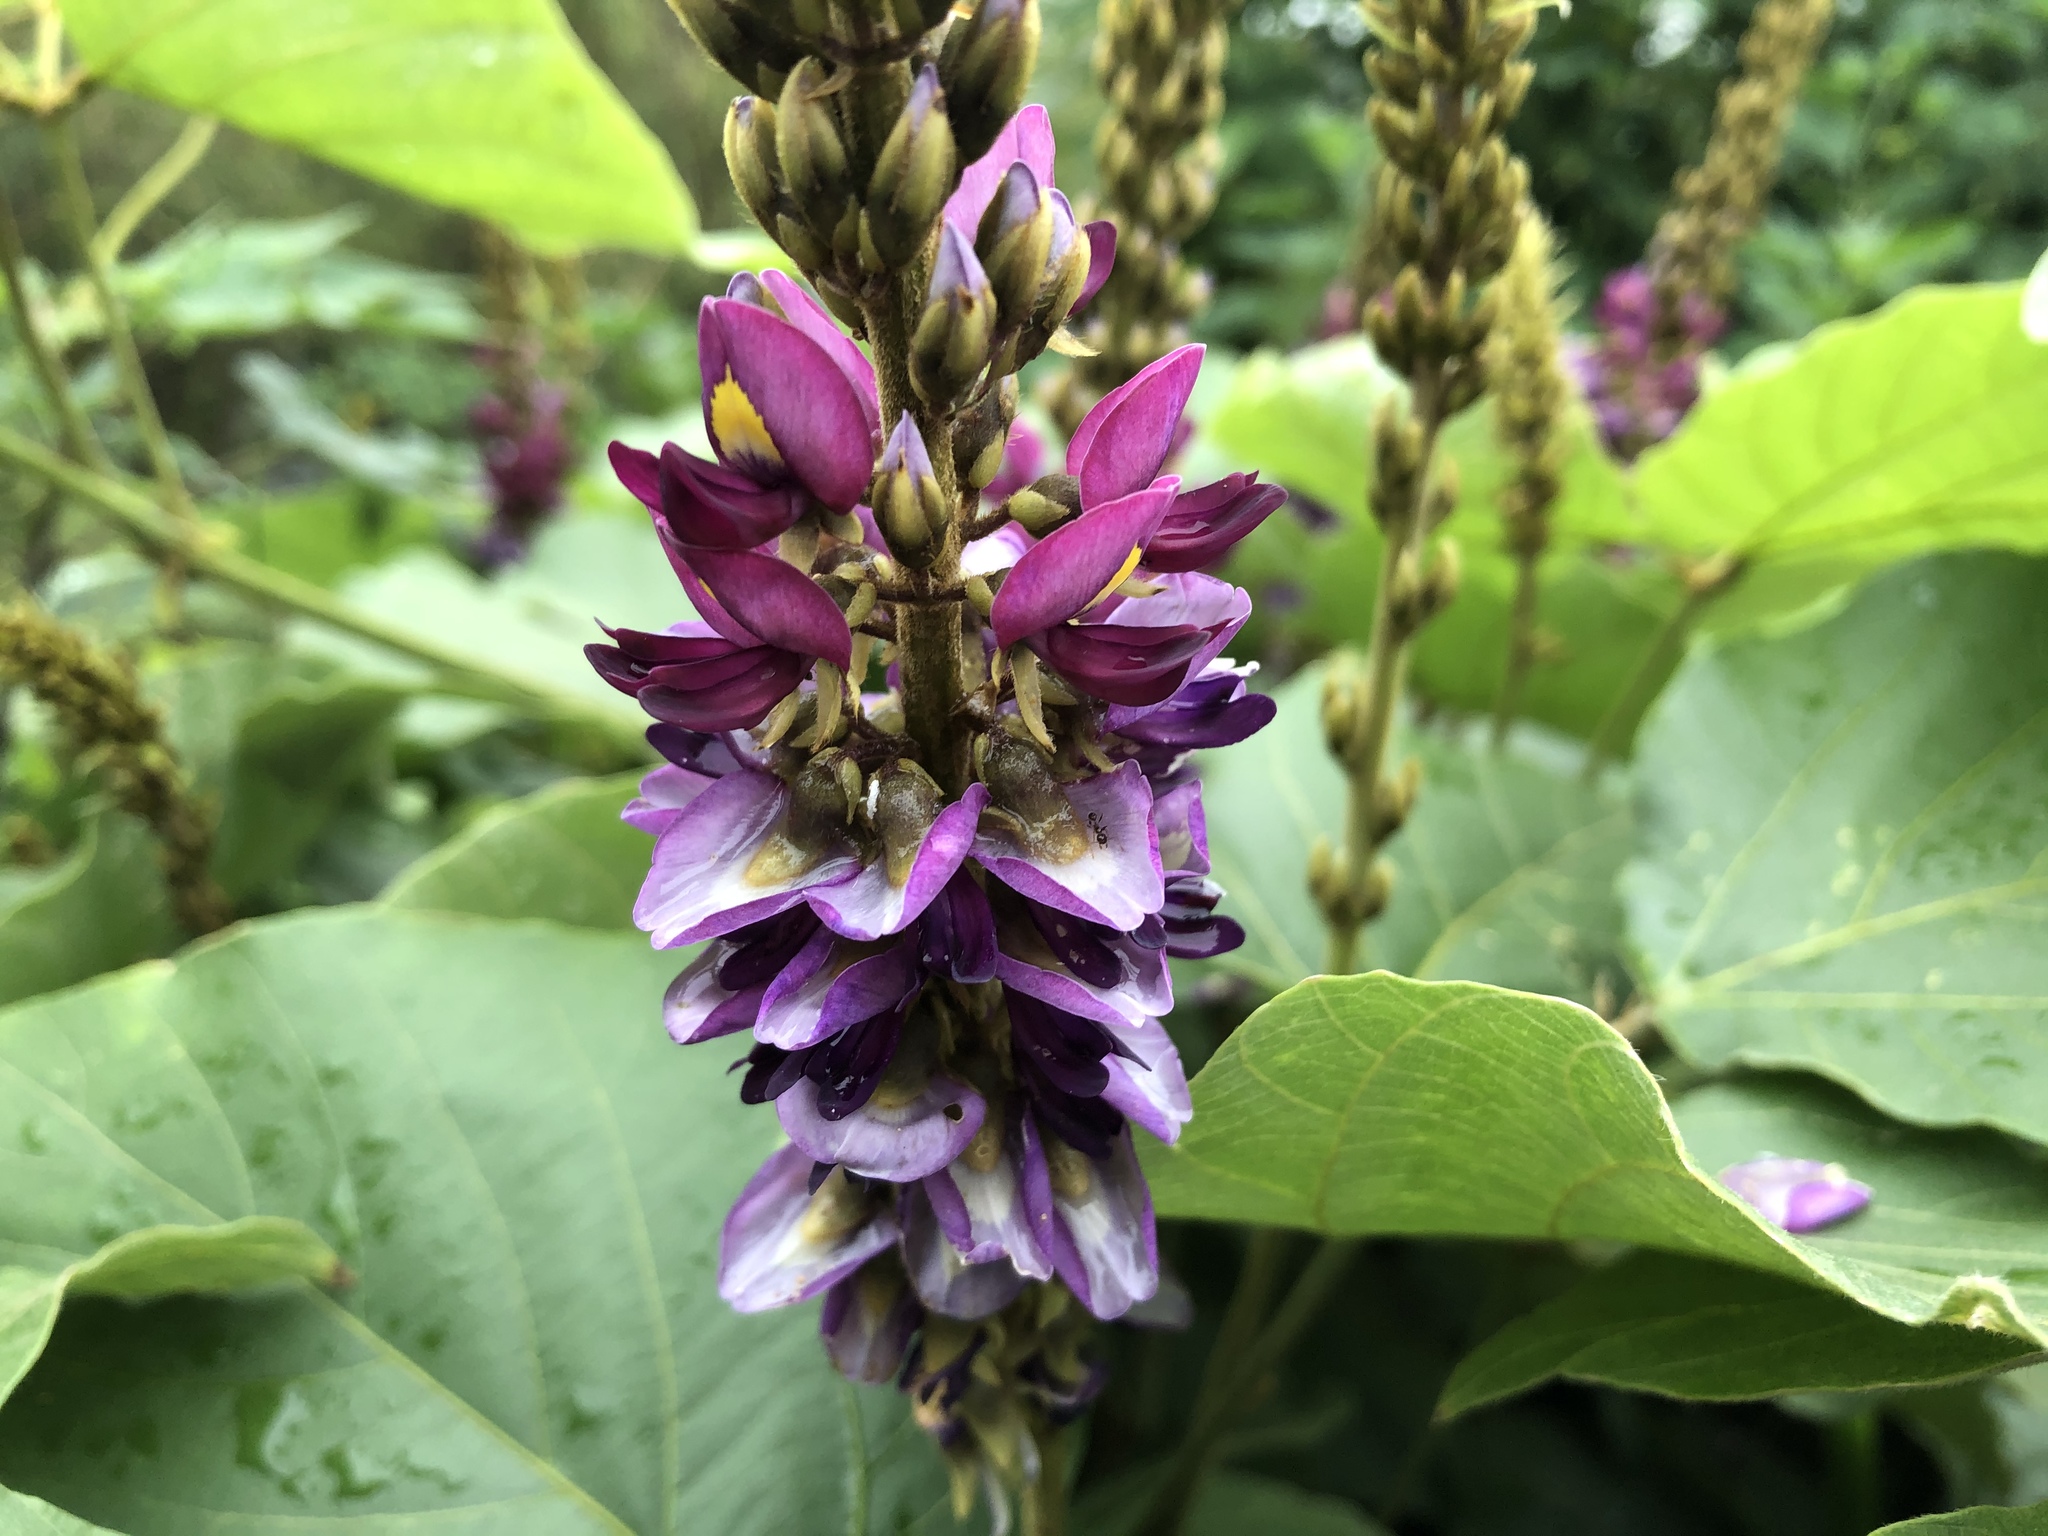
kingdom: Plantae
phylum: Tracheophyta
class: Magnoliopsida
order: Fabales
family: Fabaceae
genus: Pueraria
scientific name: Pueraria montana
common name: Kudzu
